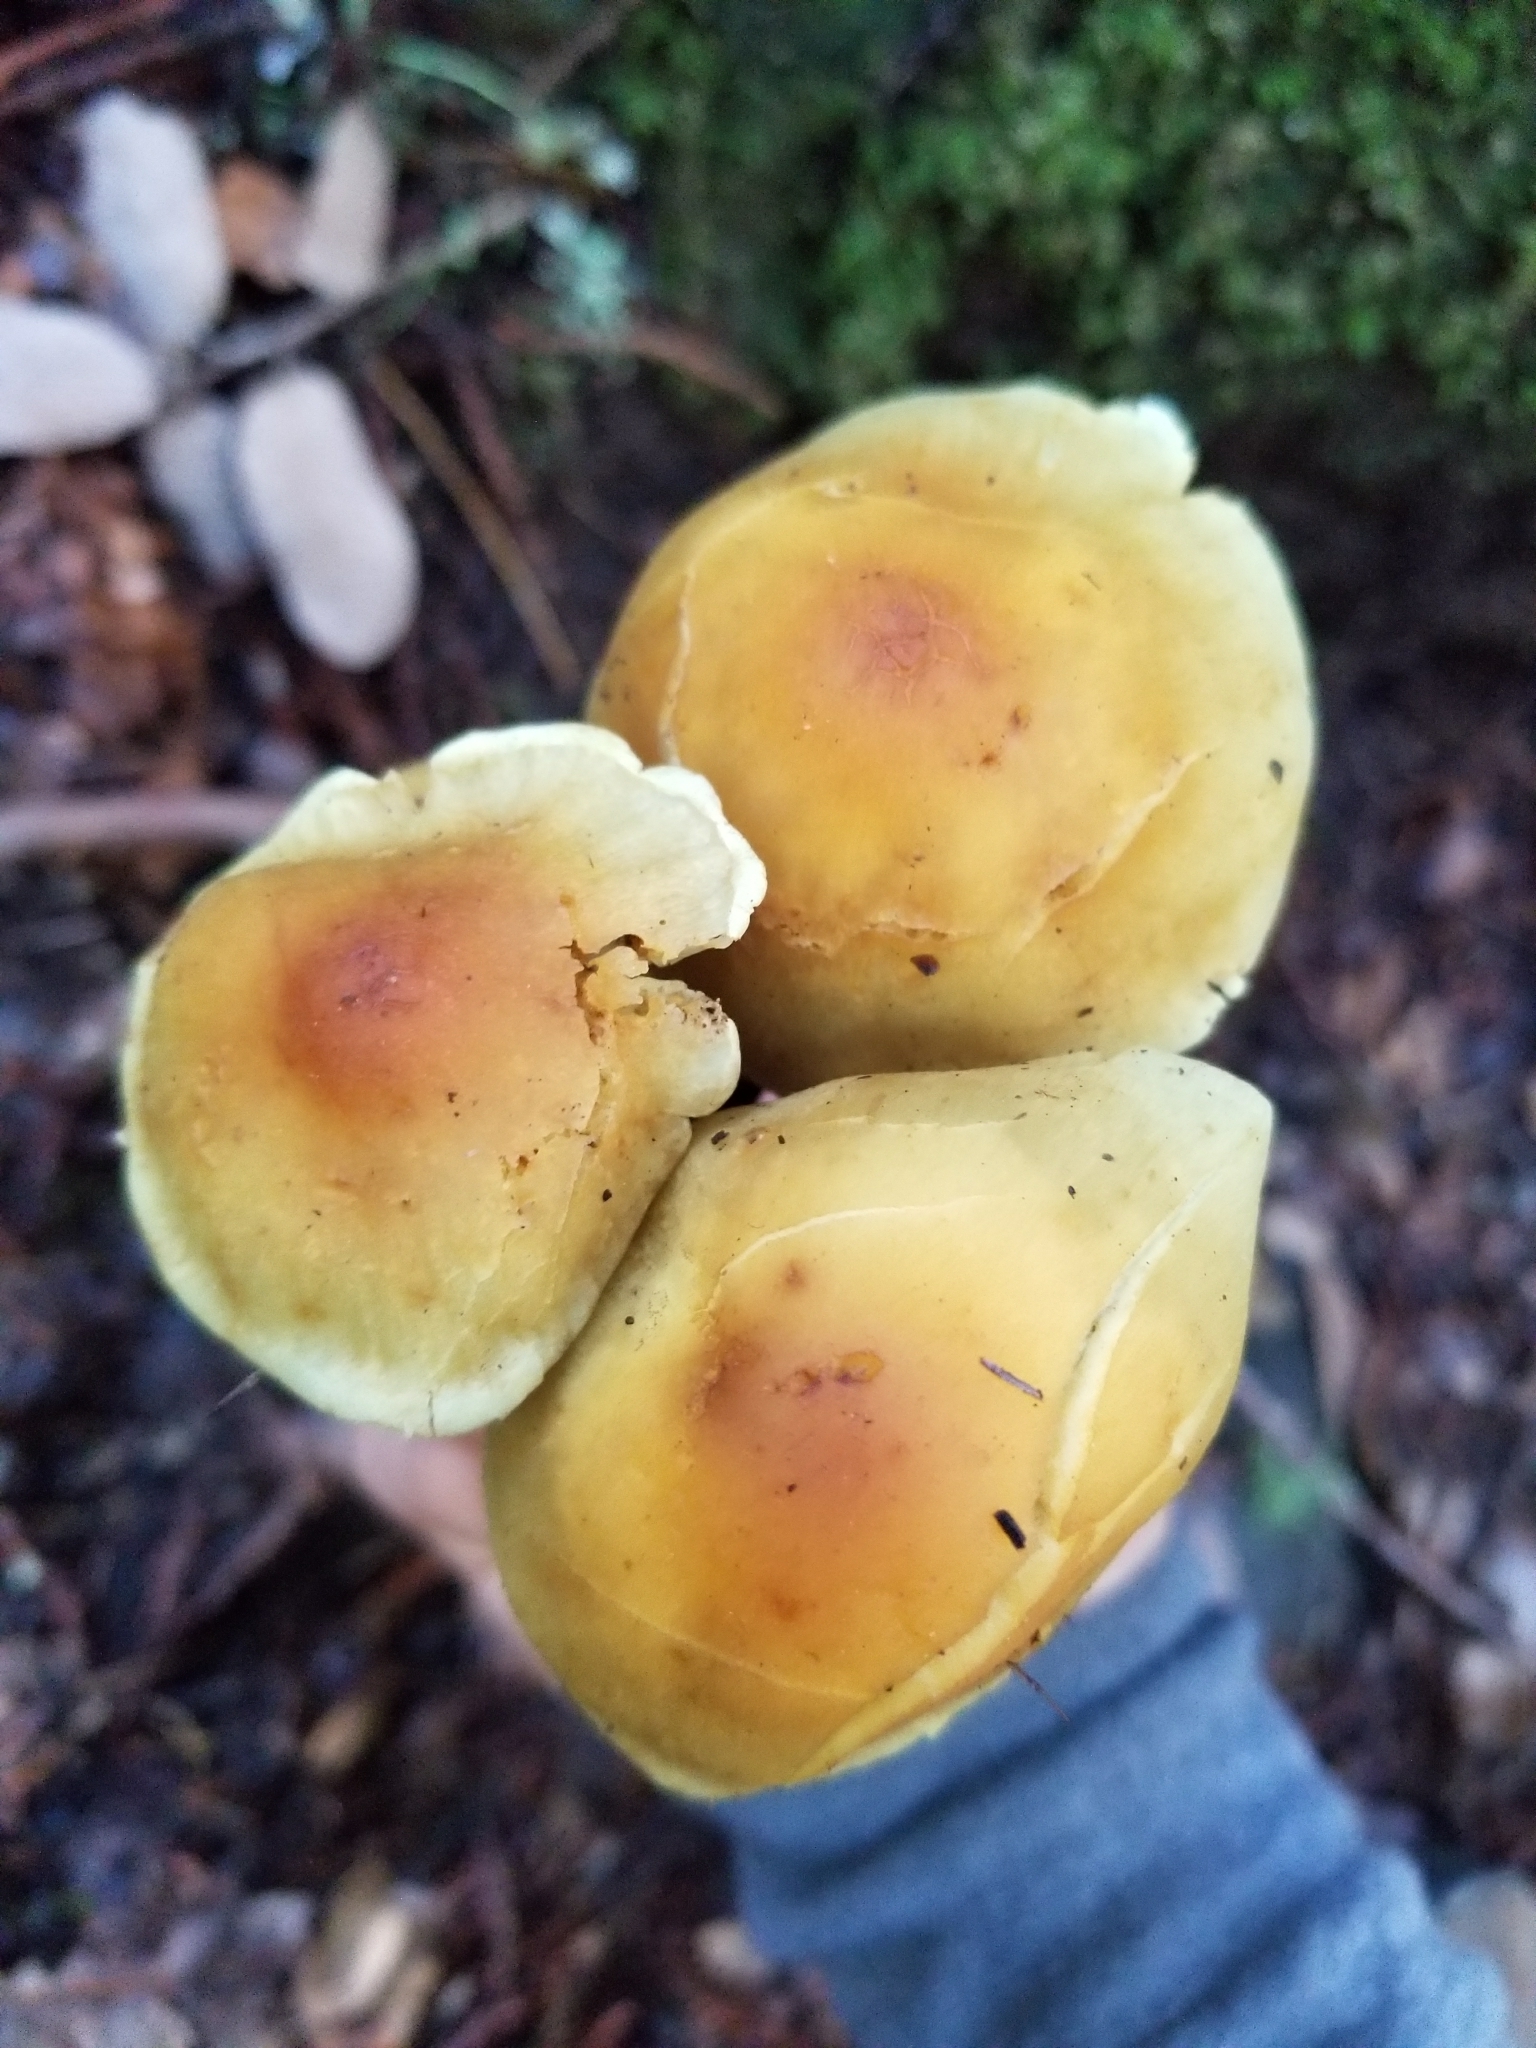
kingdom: Fungi
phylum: Basidiomycota
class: Agaricomycetes
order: Agaricales
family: Strophariaceae
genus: Hypholoma
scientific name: Hypholoma fasciculare
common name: Sulphur tuft
